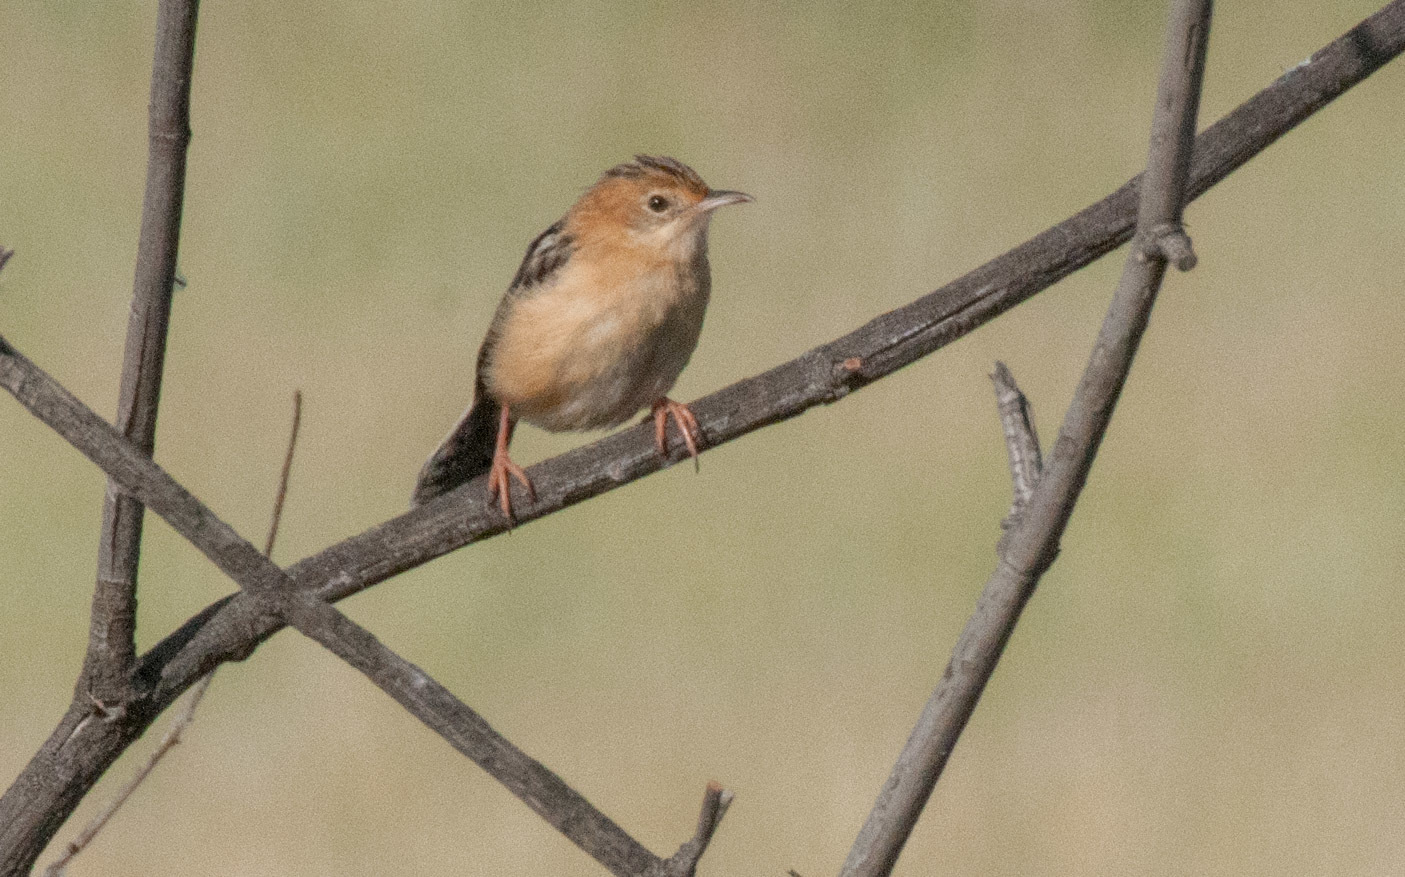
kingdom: Animalia
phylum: Chordata
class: Aves
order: Passeriformes
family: Cisticolidae
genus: Cisticola
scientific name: Cisticola exilis
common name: Golden-headed cisticola
